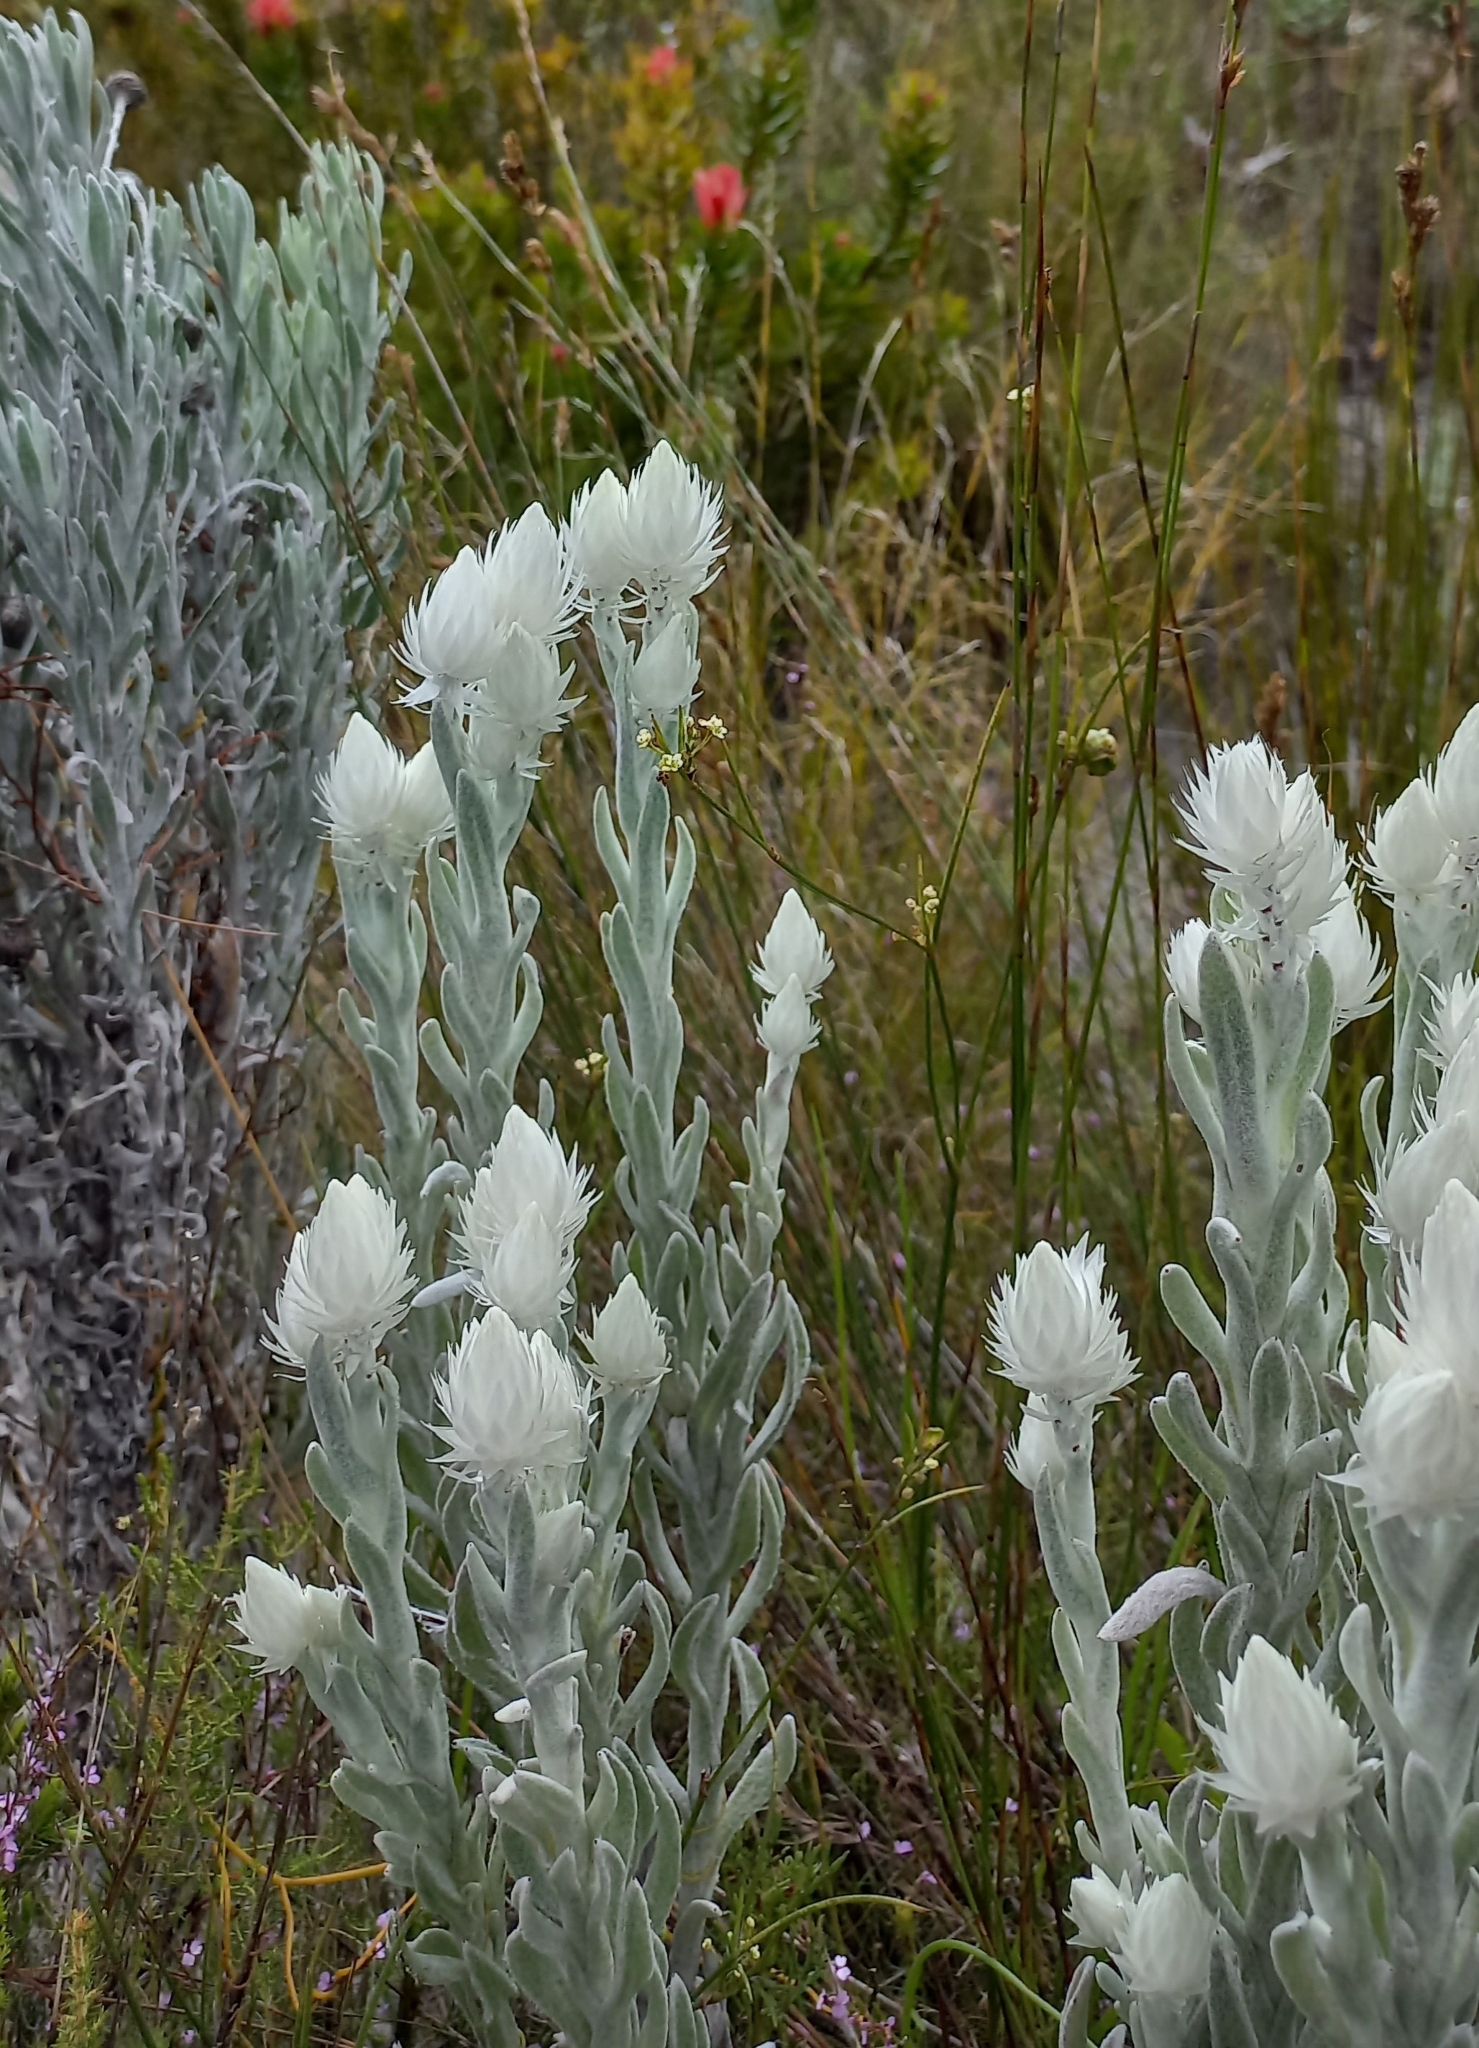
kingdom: Plantae
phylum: Tracheophyta
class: Magnoliopsida
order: Asterales
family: Asteraceae
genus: Syncarpha
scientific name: Syncarpha vestita
